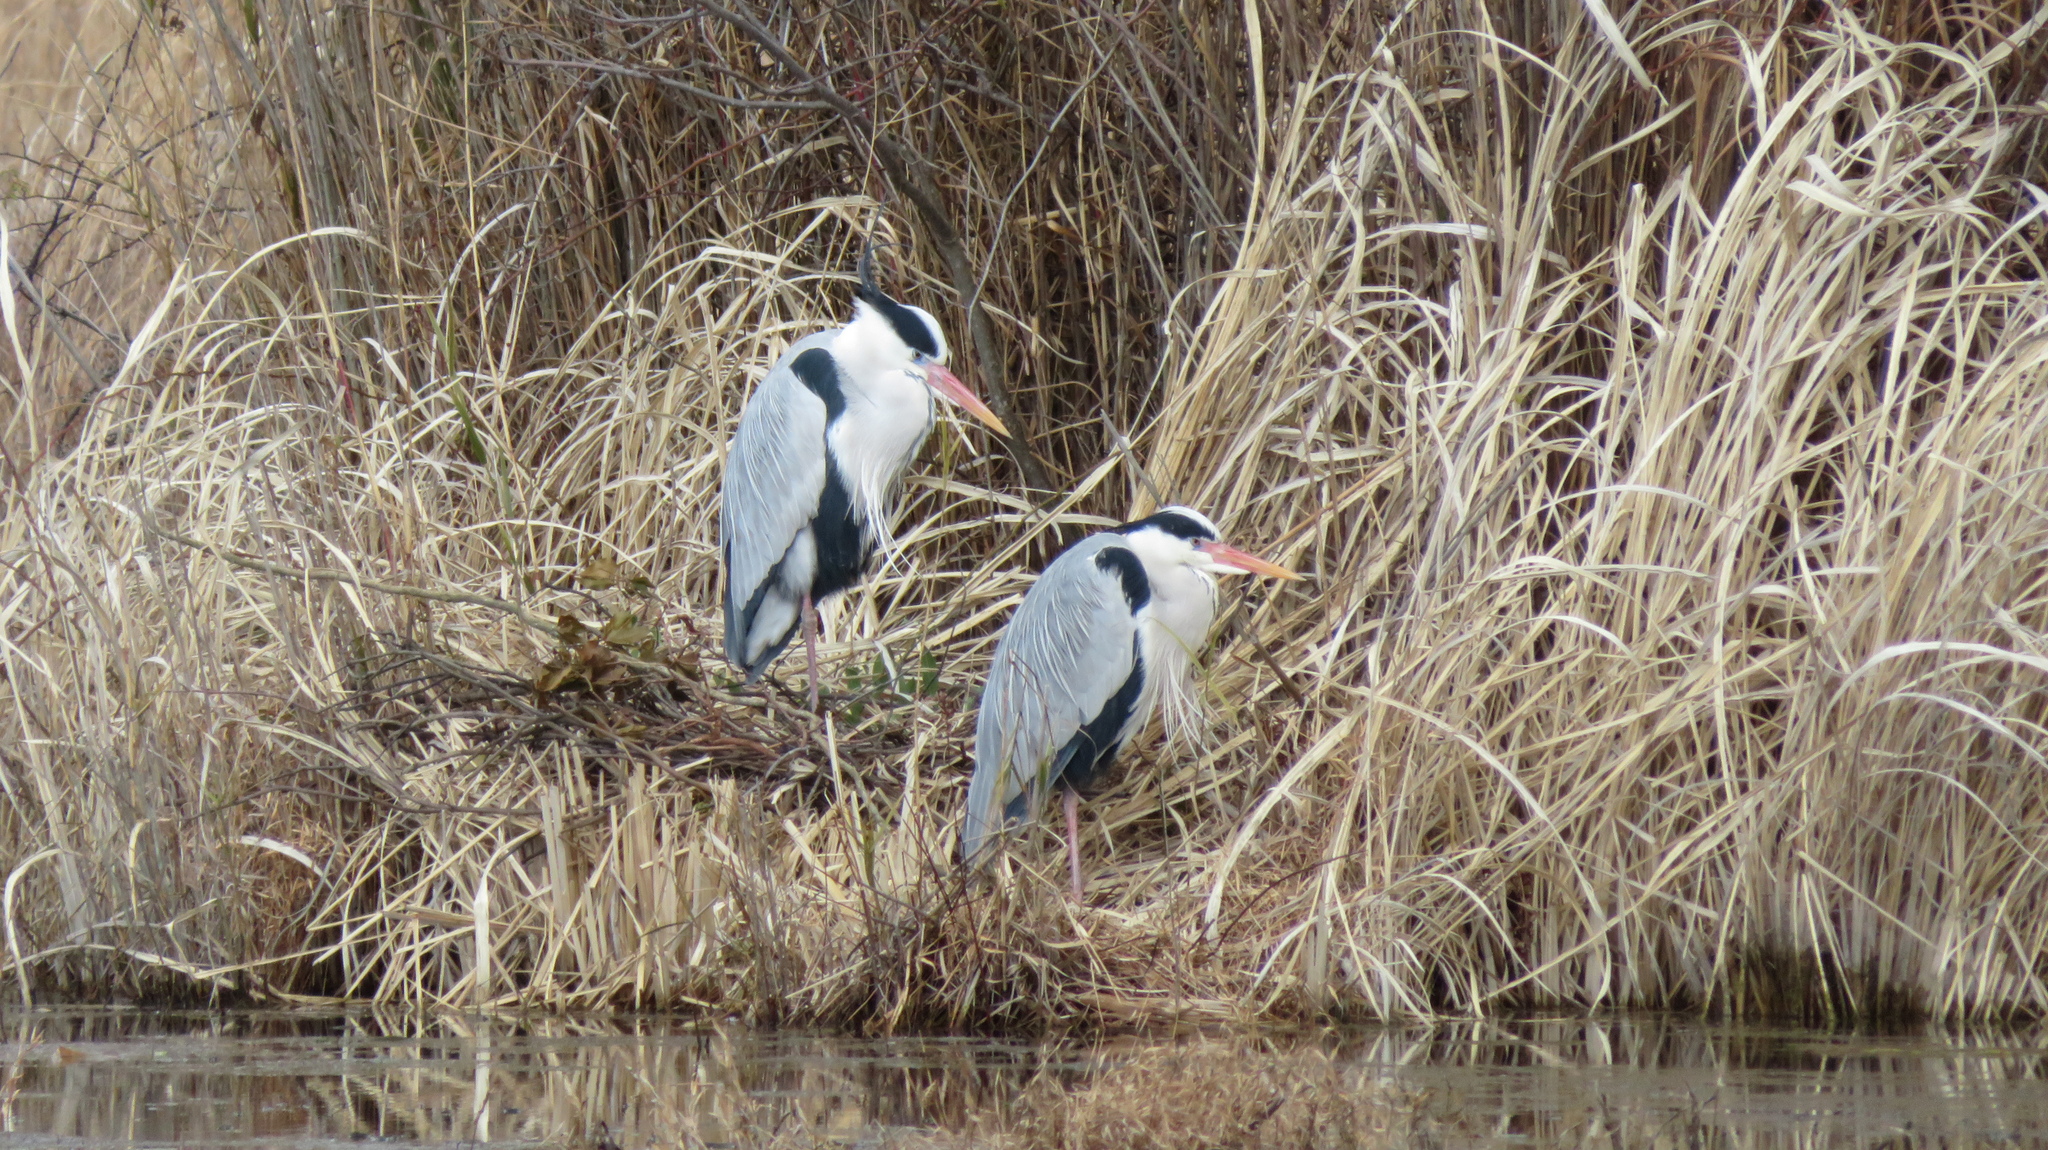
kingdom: Animalia
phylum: Chordata
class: Aves
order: Pelecaniformes
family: Ardeidae
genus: Ardea
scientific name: Ardea cinerea
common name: Grey heron
